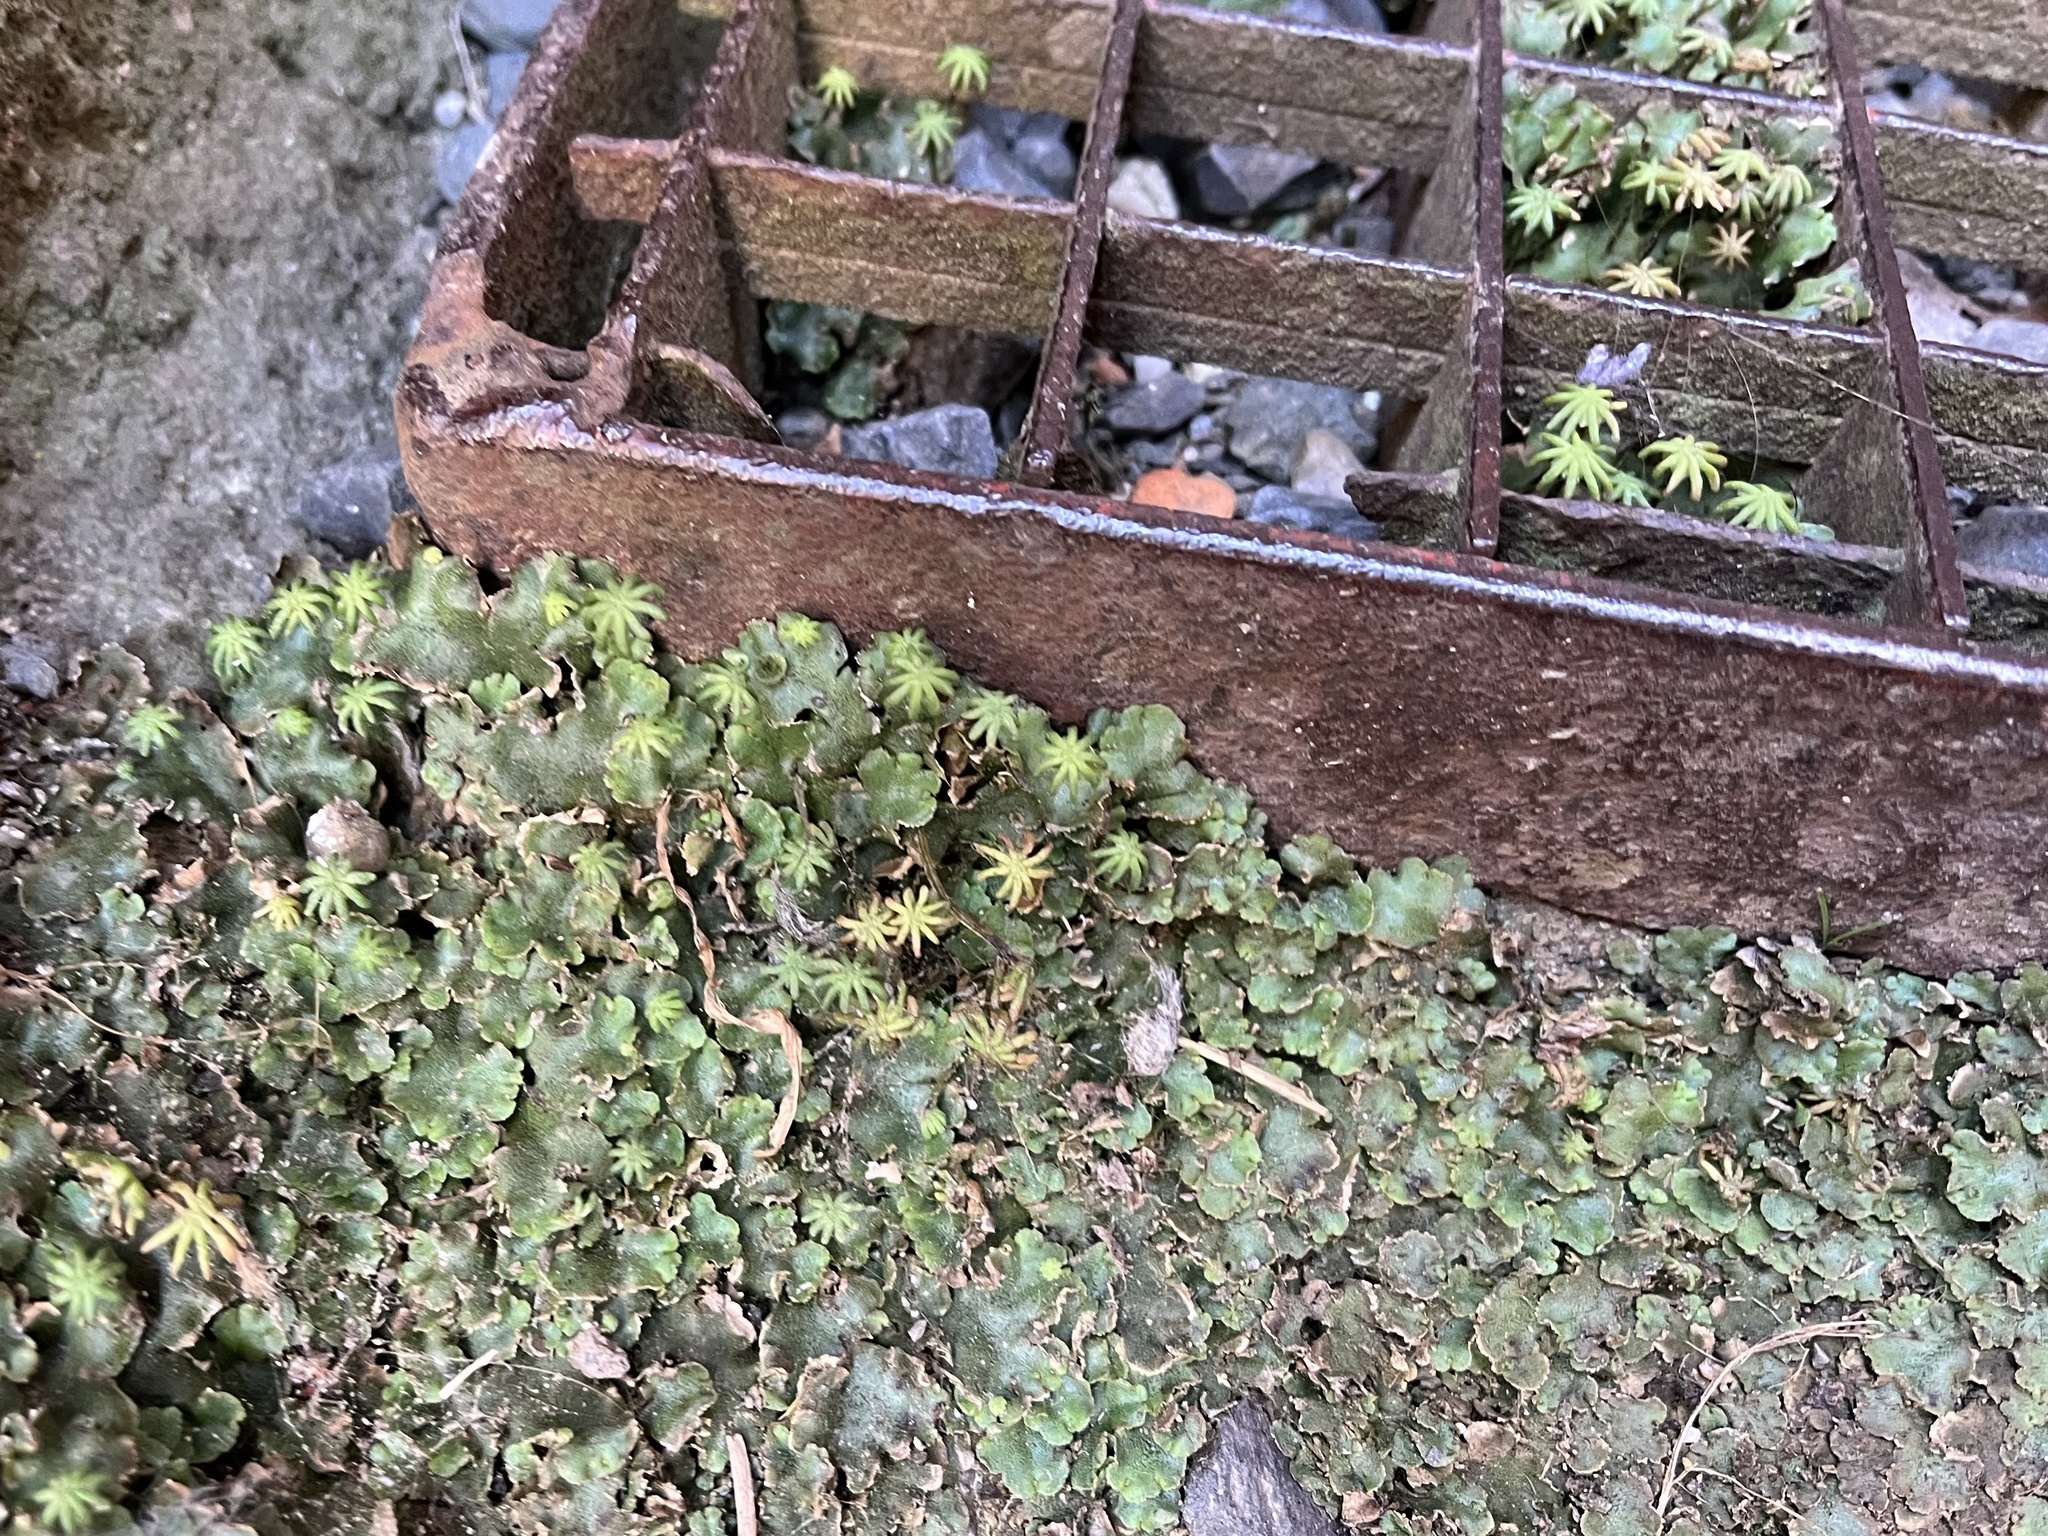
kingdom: Plantae
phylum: Marchantiophyta
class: Marchantiopsida
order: Marchantiales
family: Marchantiaceae
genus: Marchantia
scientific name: Marchantia polymorpha
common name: Common liverwort
